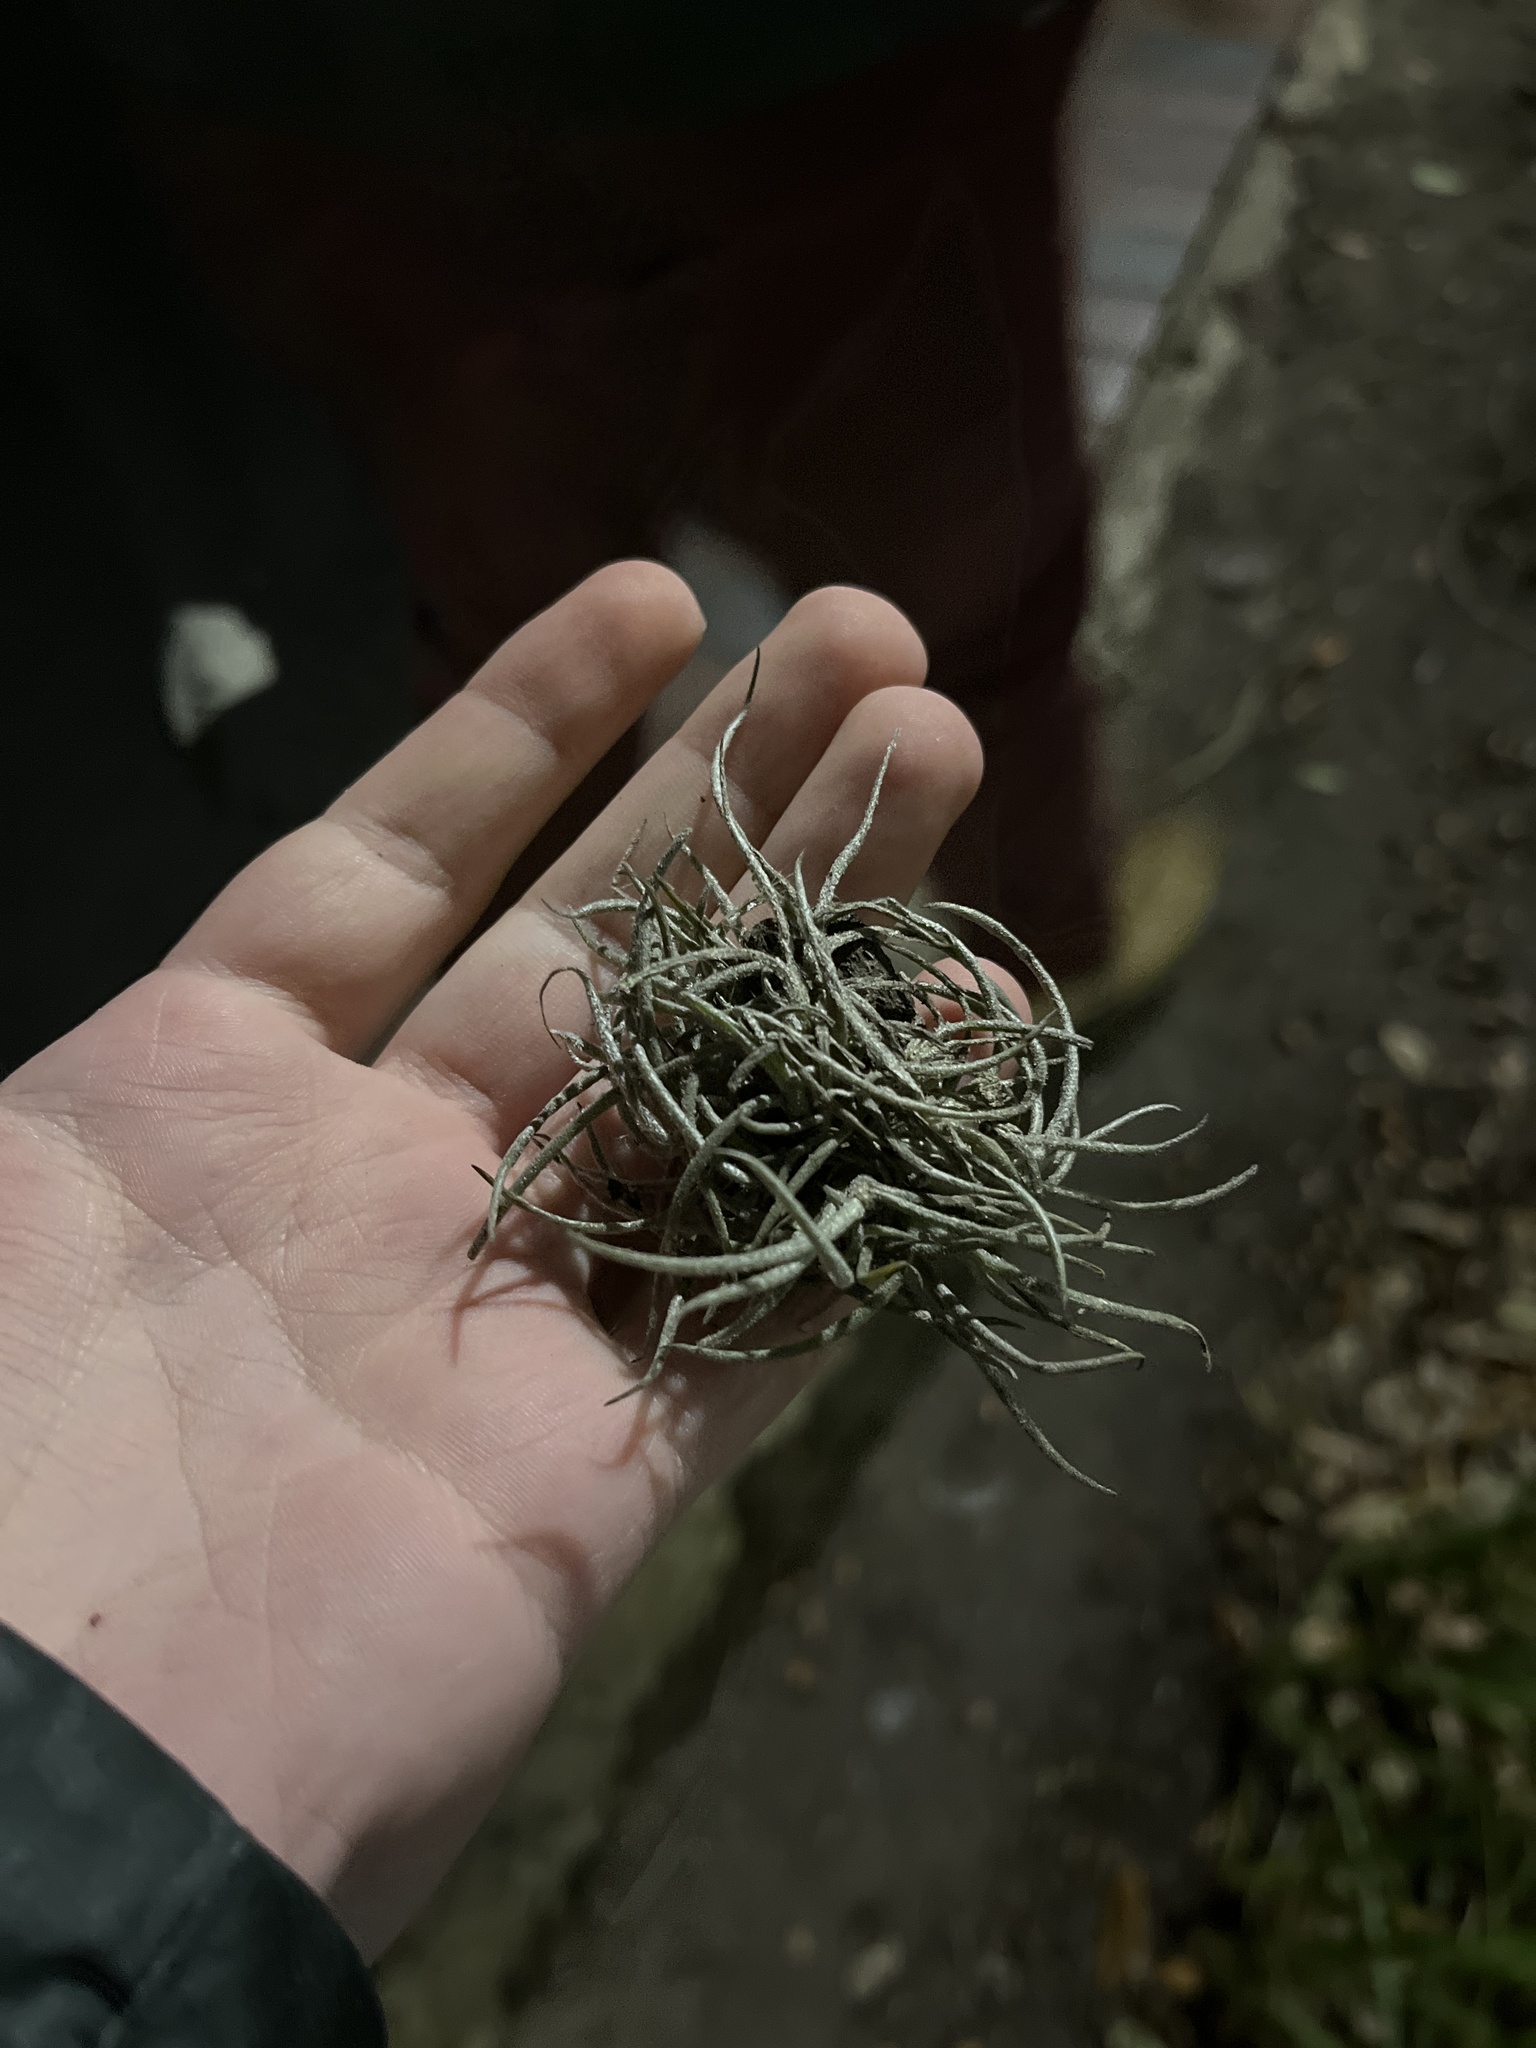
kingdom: Plantae
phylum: Tracheophyta
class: Liliopsida
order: Poales
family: Bromeliaceae
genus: Tillandsia
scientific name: Tillandsia recurvata
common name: Small ballmoss
